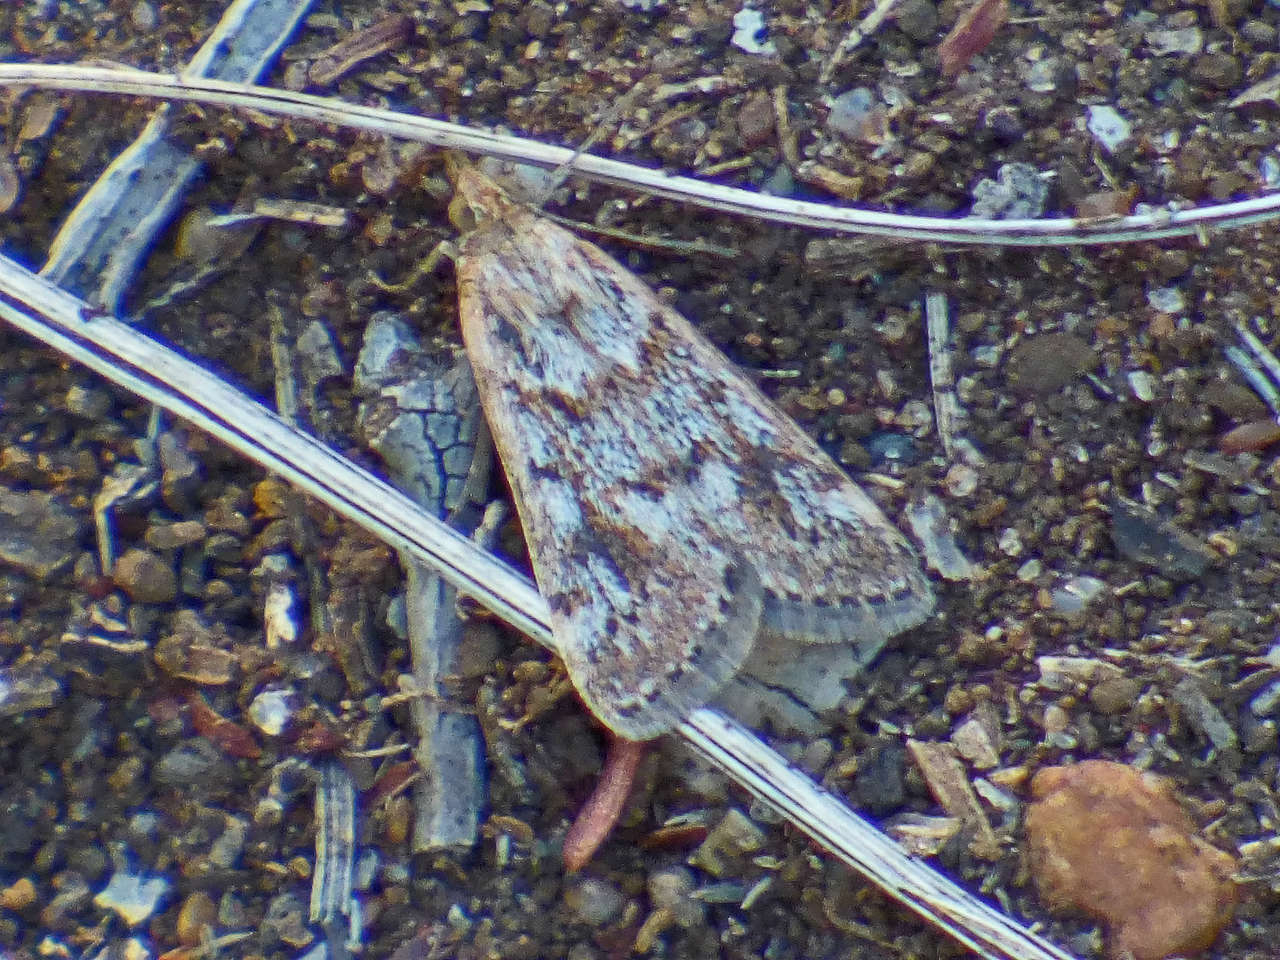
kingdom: Animalia
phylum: Arthropoda
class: Insecta
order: Lepidoptera
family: Crambidae
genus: Achyra
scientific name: Achyra affinitalis
